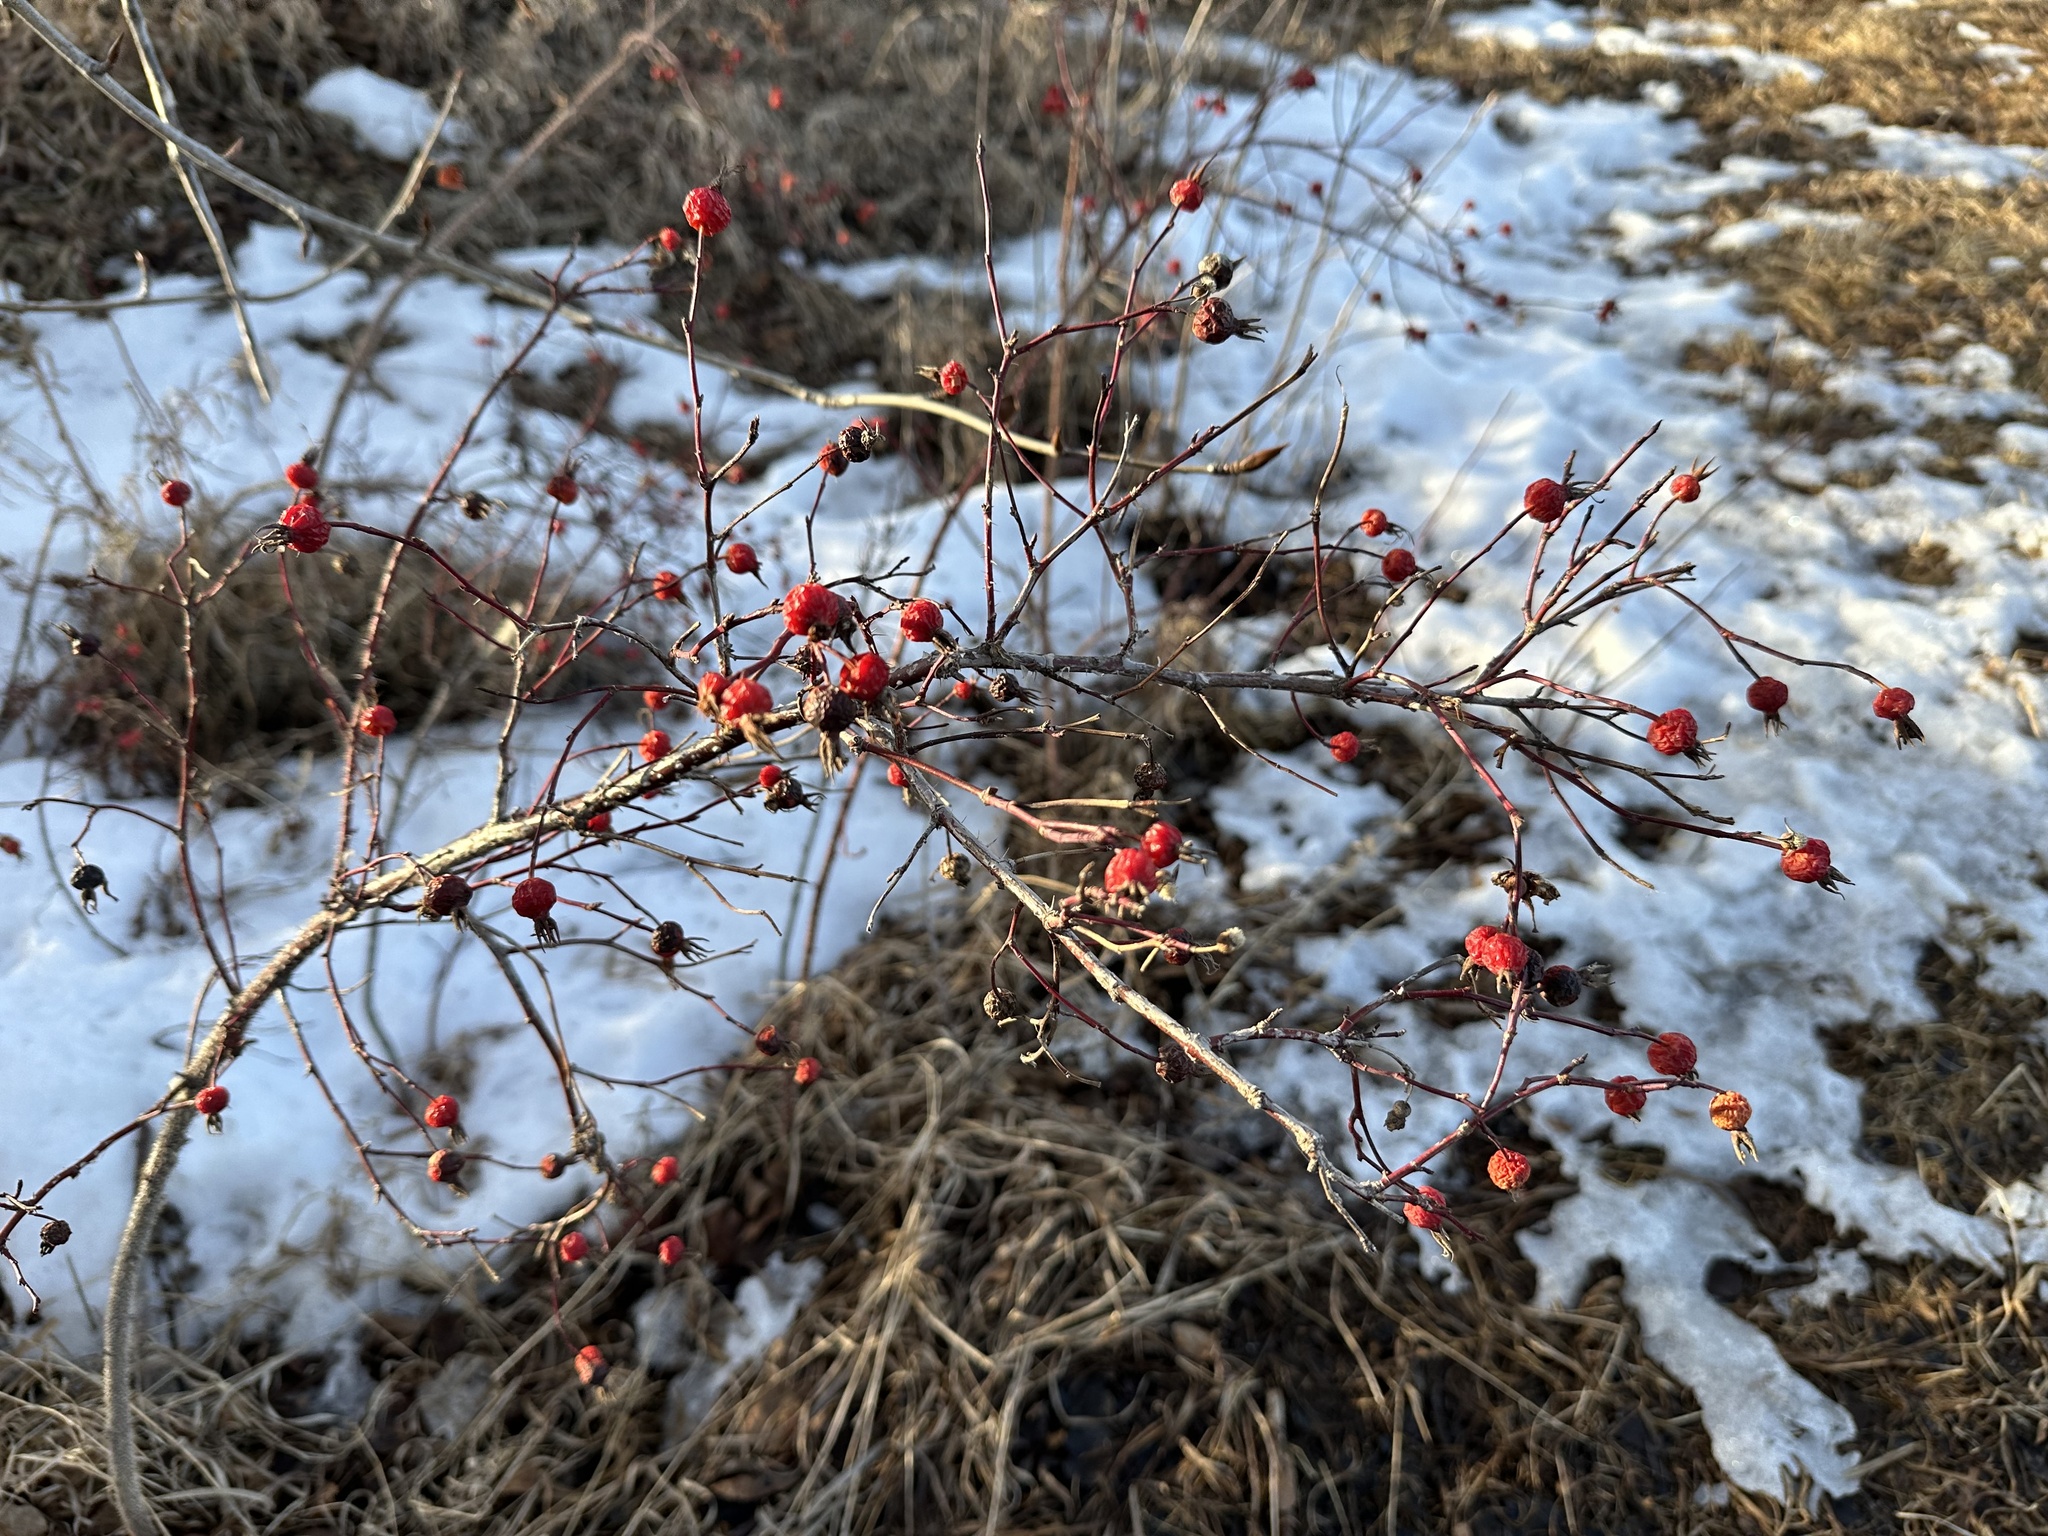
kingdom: Plantae
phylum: Tracheophyta
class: Magnoliopsida
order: Rosales
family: Rosaceae
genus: Rosa
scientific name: Rosa woodsii
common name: Woods's rose
